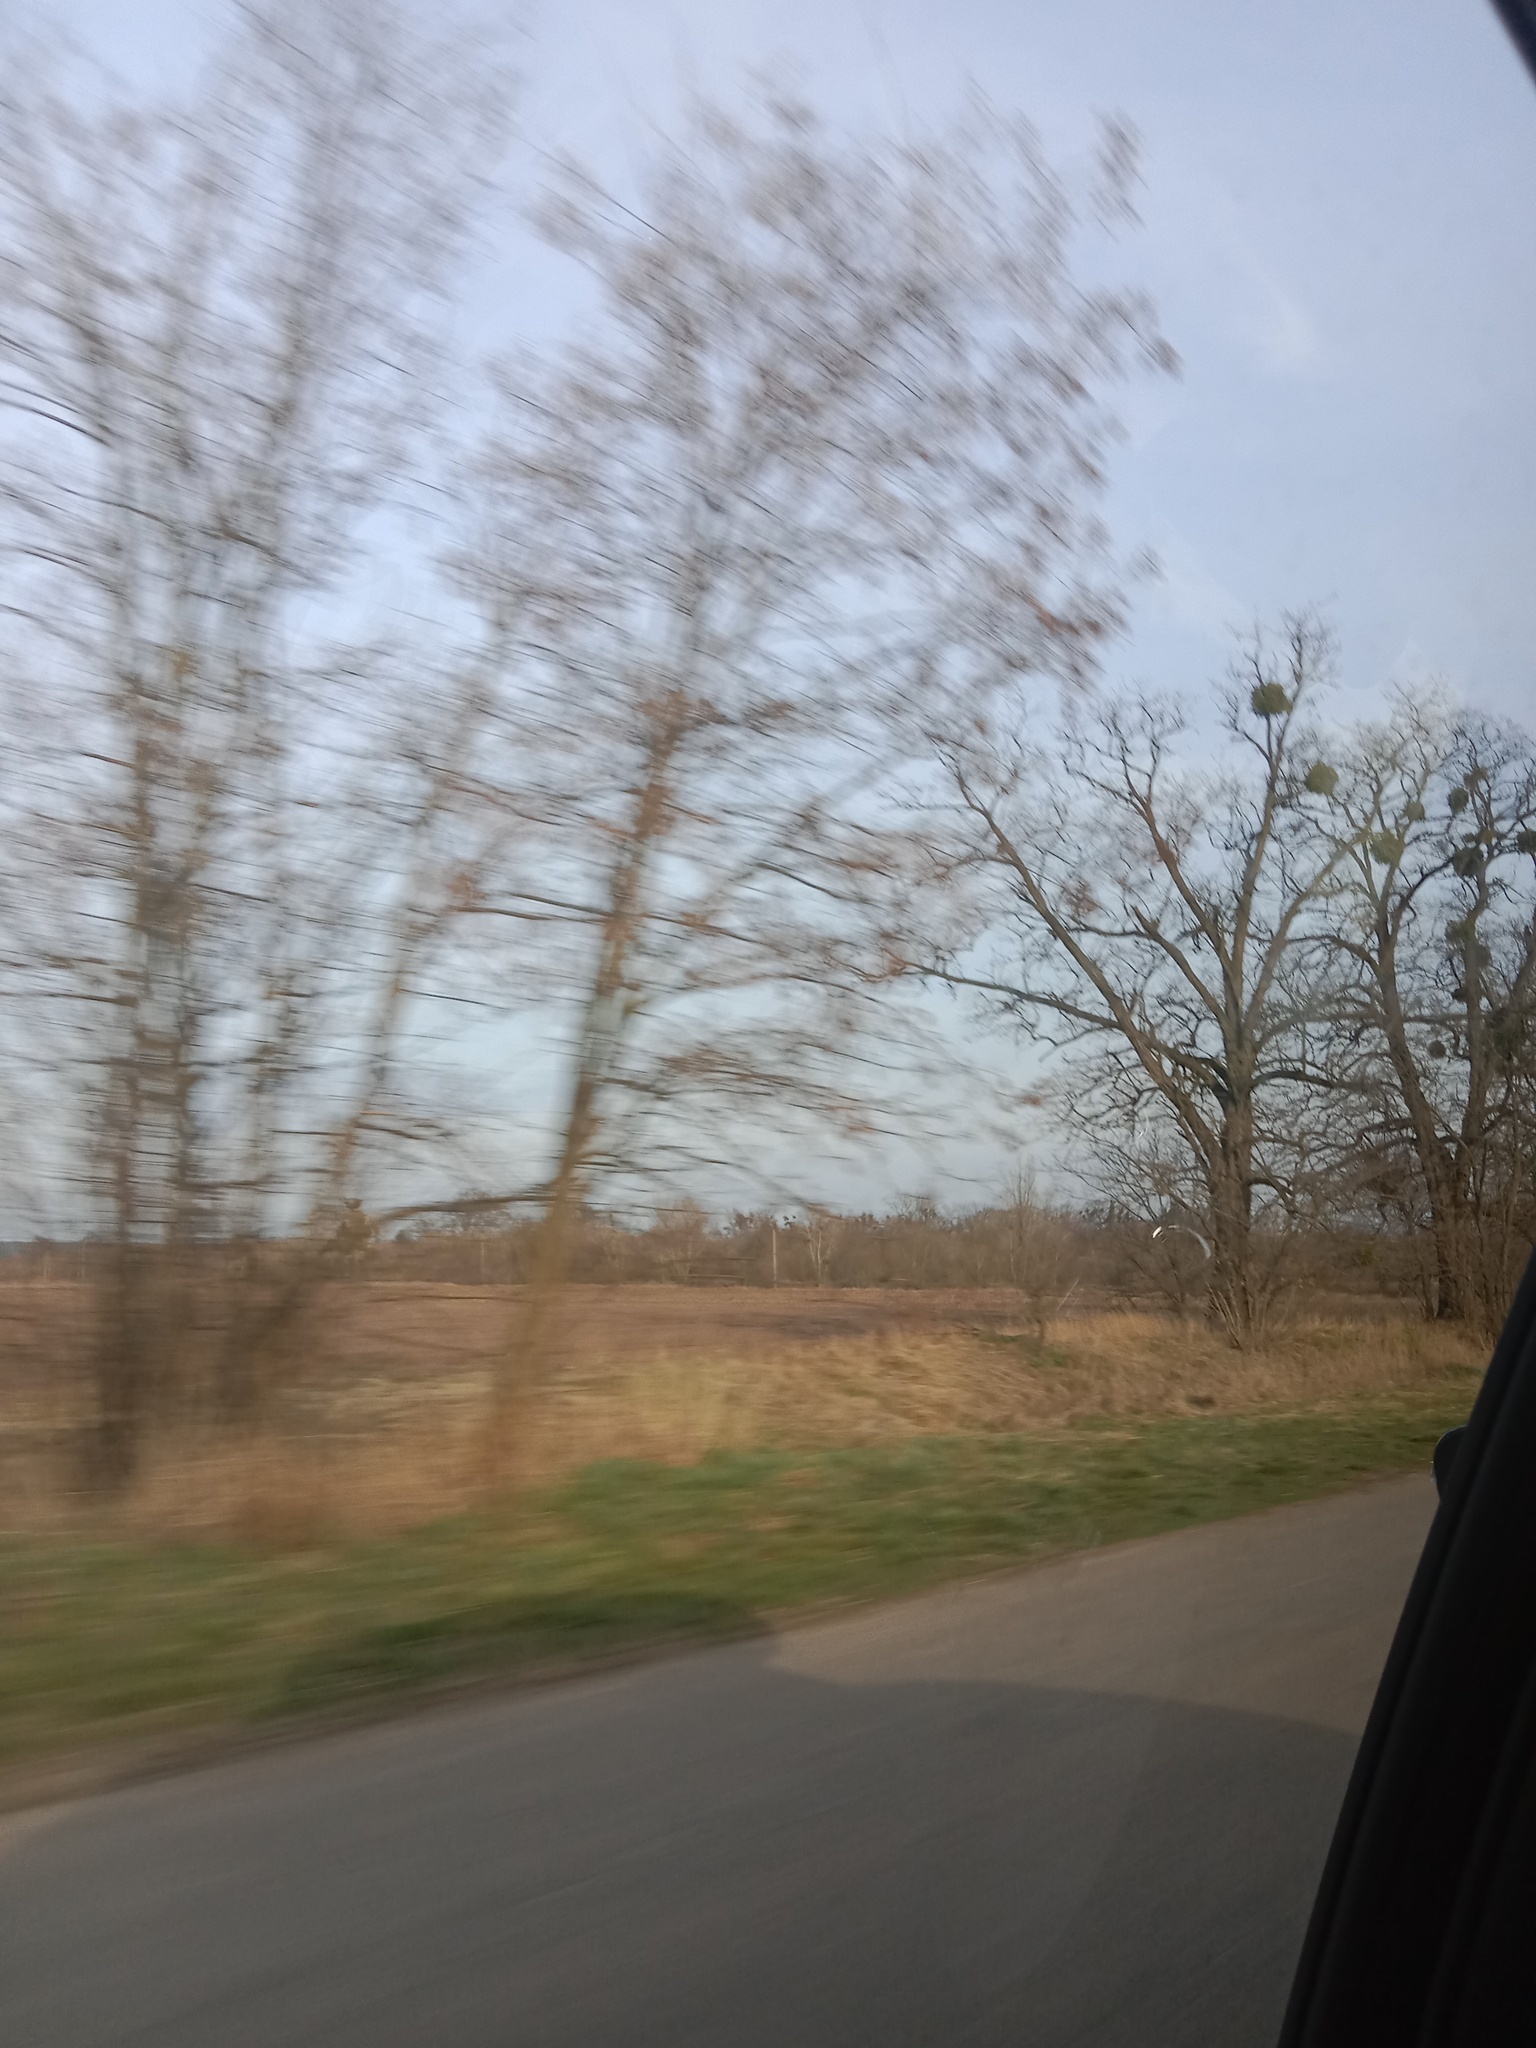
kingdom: Plantae
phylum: Tracheophyta
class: Magnoliopsida
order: Santalales
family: Viscaceae
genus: Viscum
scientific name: Viscum album
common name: Mistletoe
